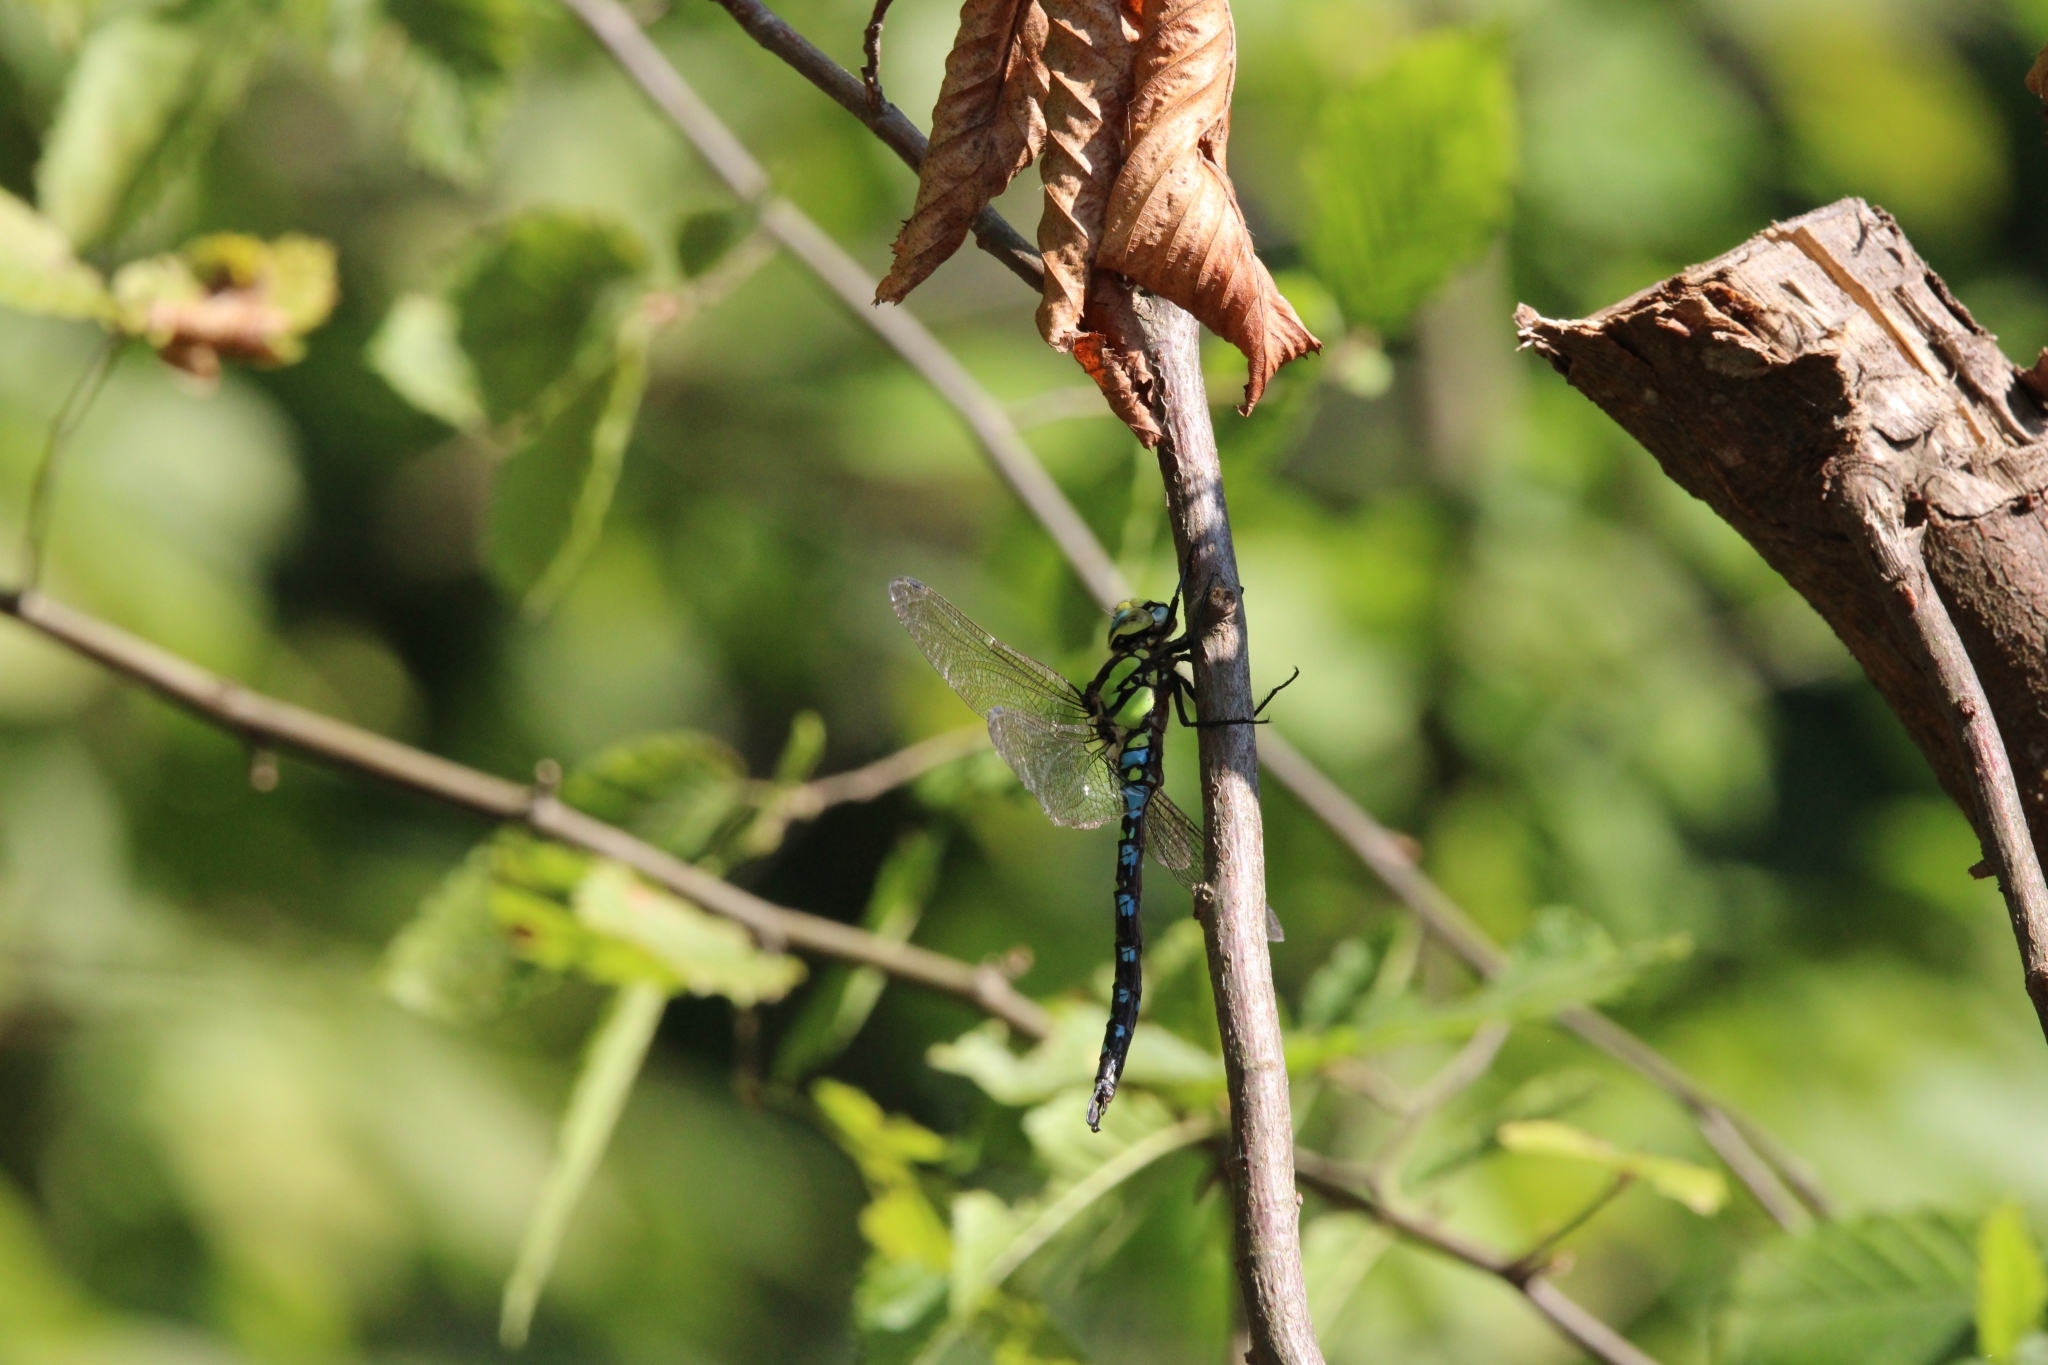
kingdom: Animalia
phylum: Arthropoda
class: Insecta
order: Odonata
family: Aeshnidae
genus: Aeshna
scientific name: Aeshna cyanea
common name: Southern hawker
